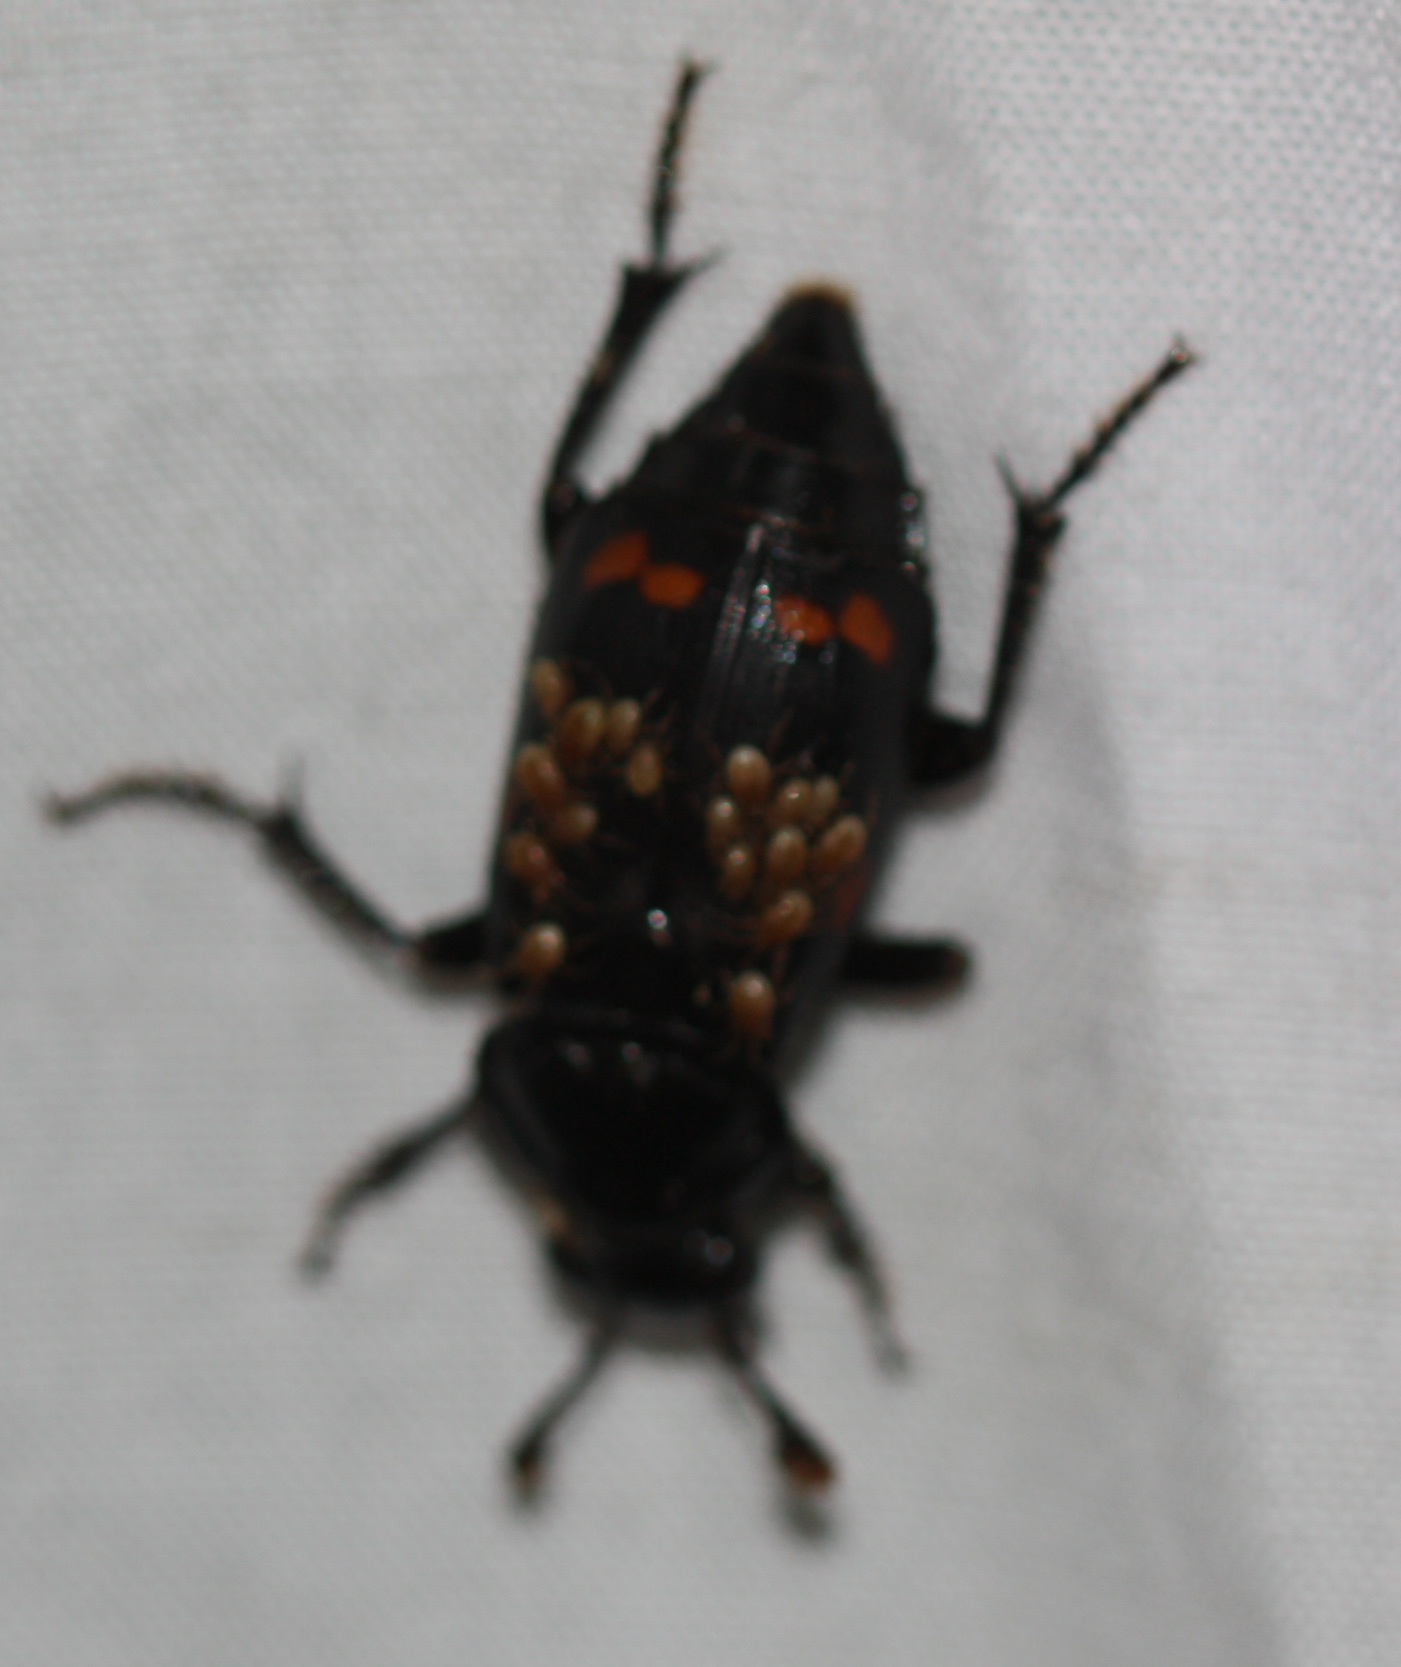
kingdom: Animalia
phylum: Arthropoda
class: Insecta
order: Coleoptera
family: Staphylinidae
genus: Nicrophorus
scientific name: Nicrophorus pustulatus
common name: Pustulated carrion beetle
